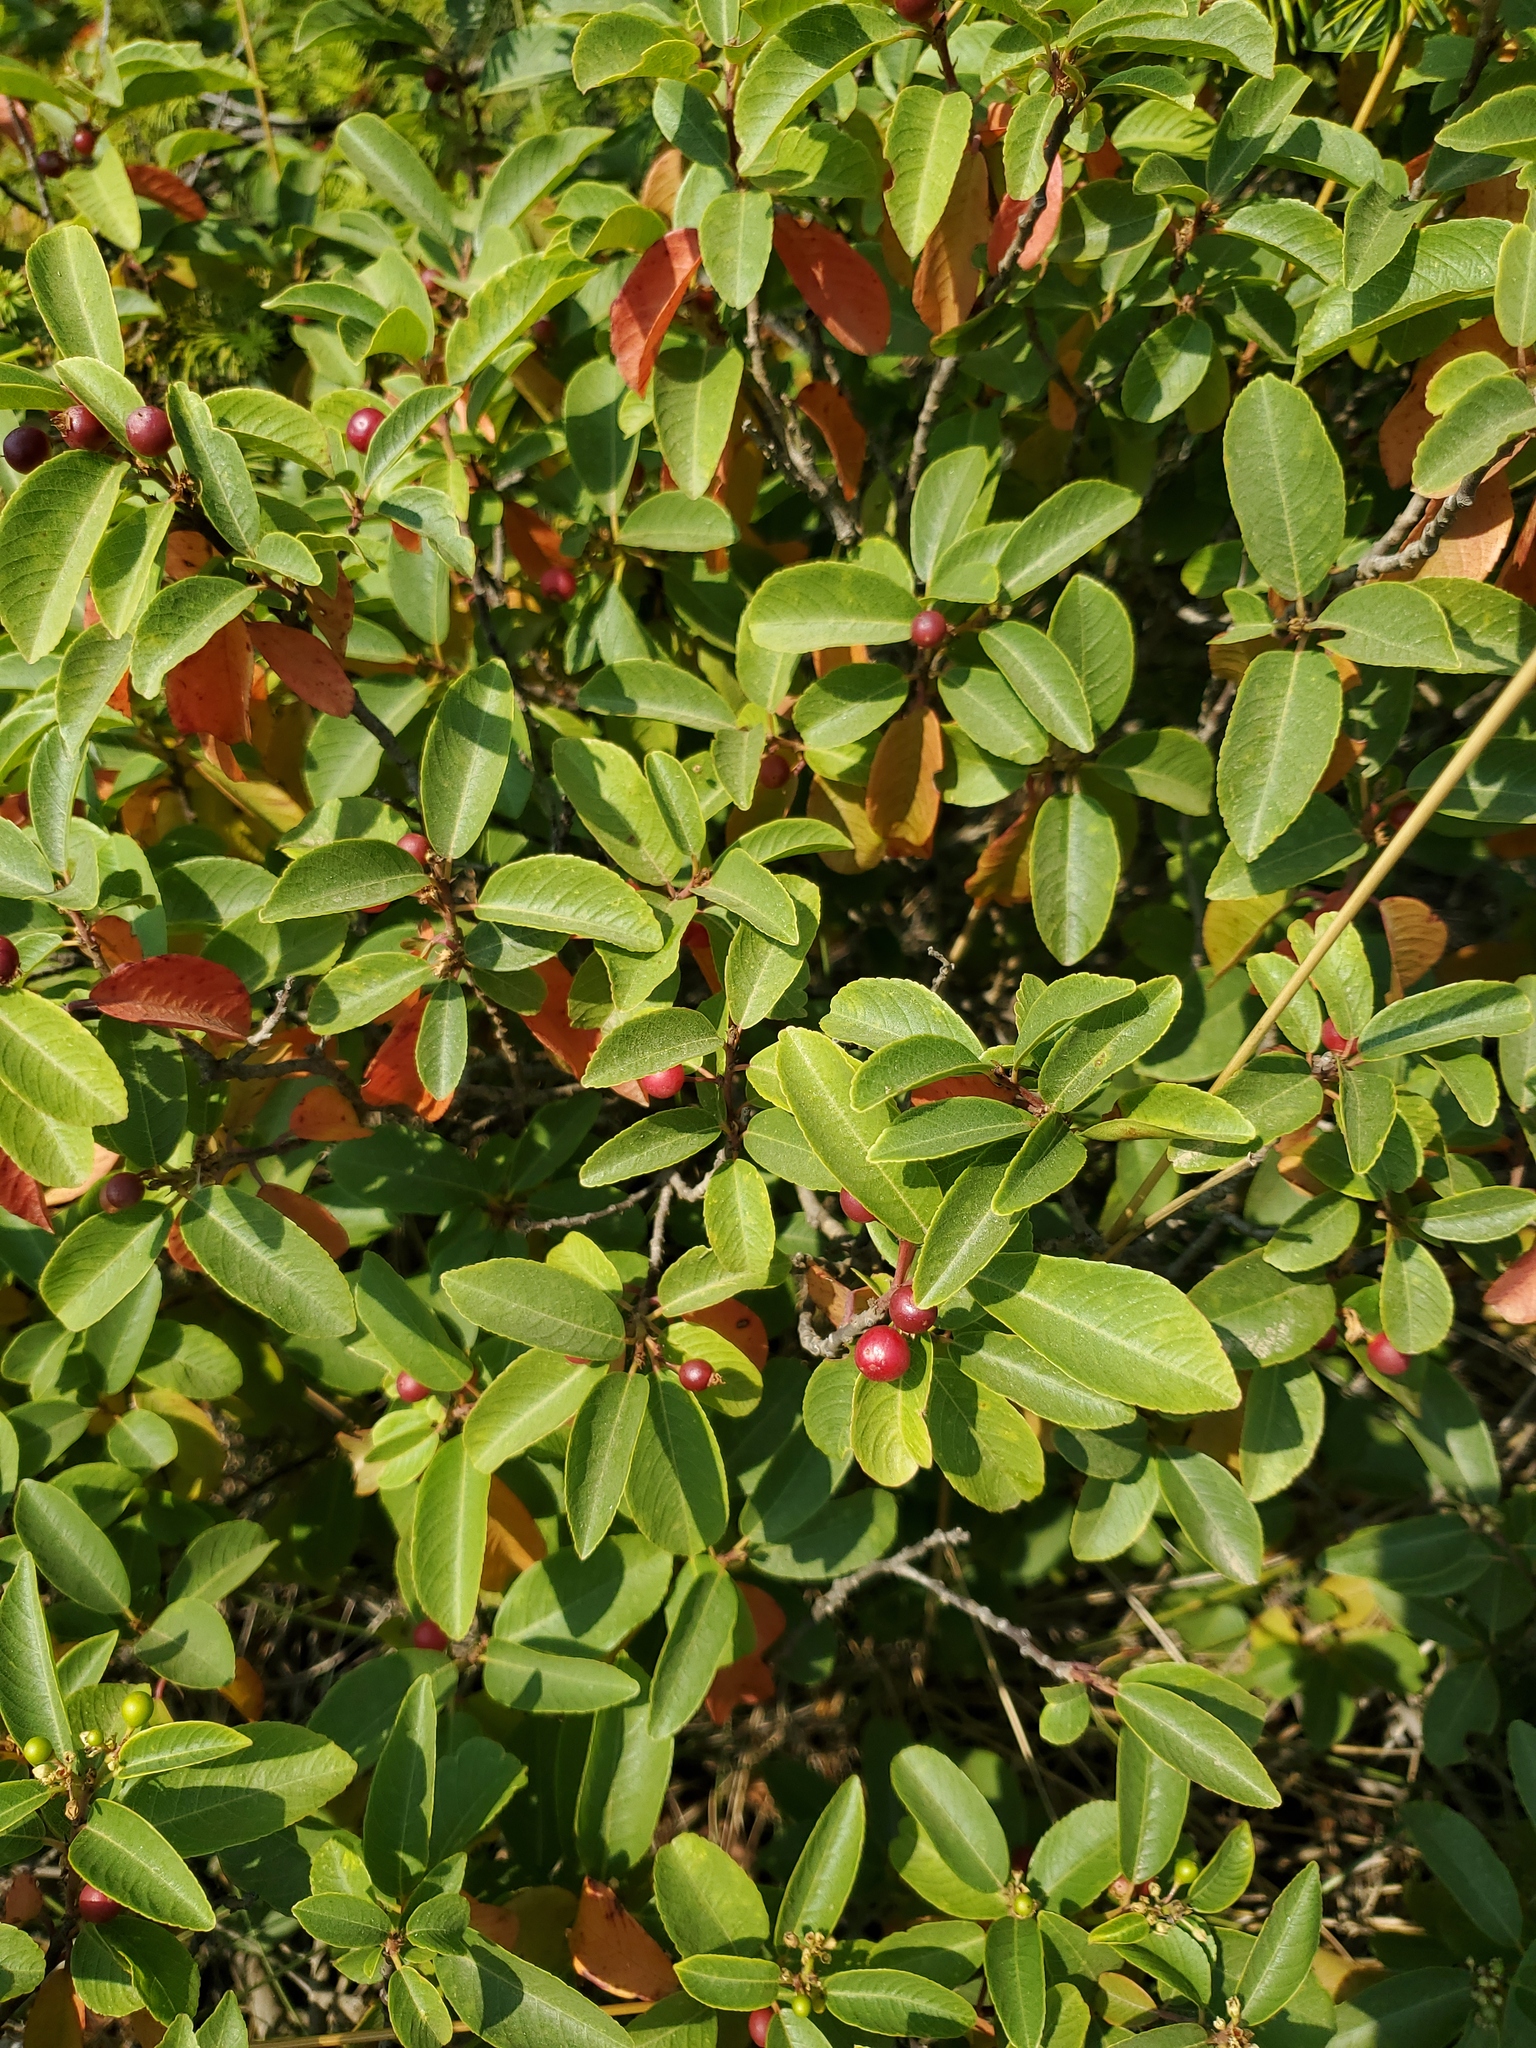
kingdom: Plantae
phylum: Tracheophyta
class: Magnoliopsida
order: Rosales
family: Rhamnaceae
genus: Frangula
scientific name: Frangula californica
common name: California buckthorn
